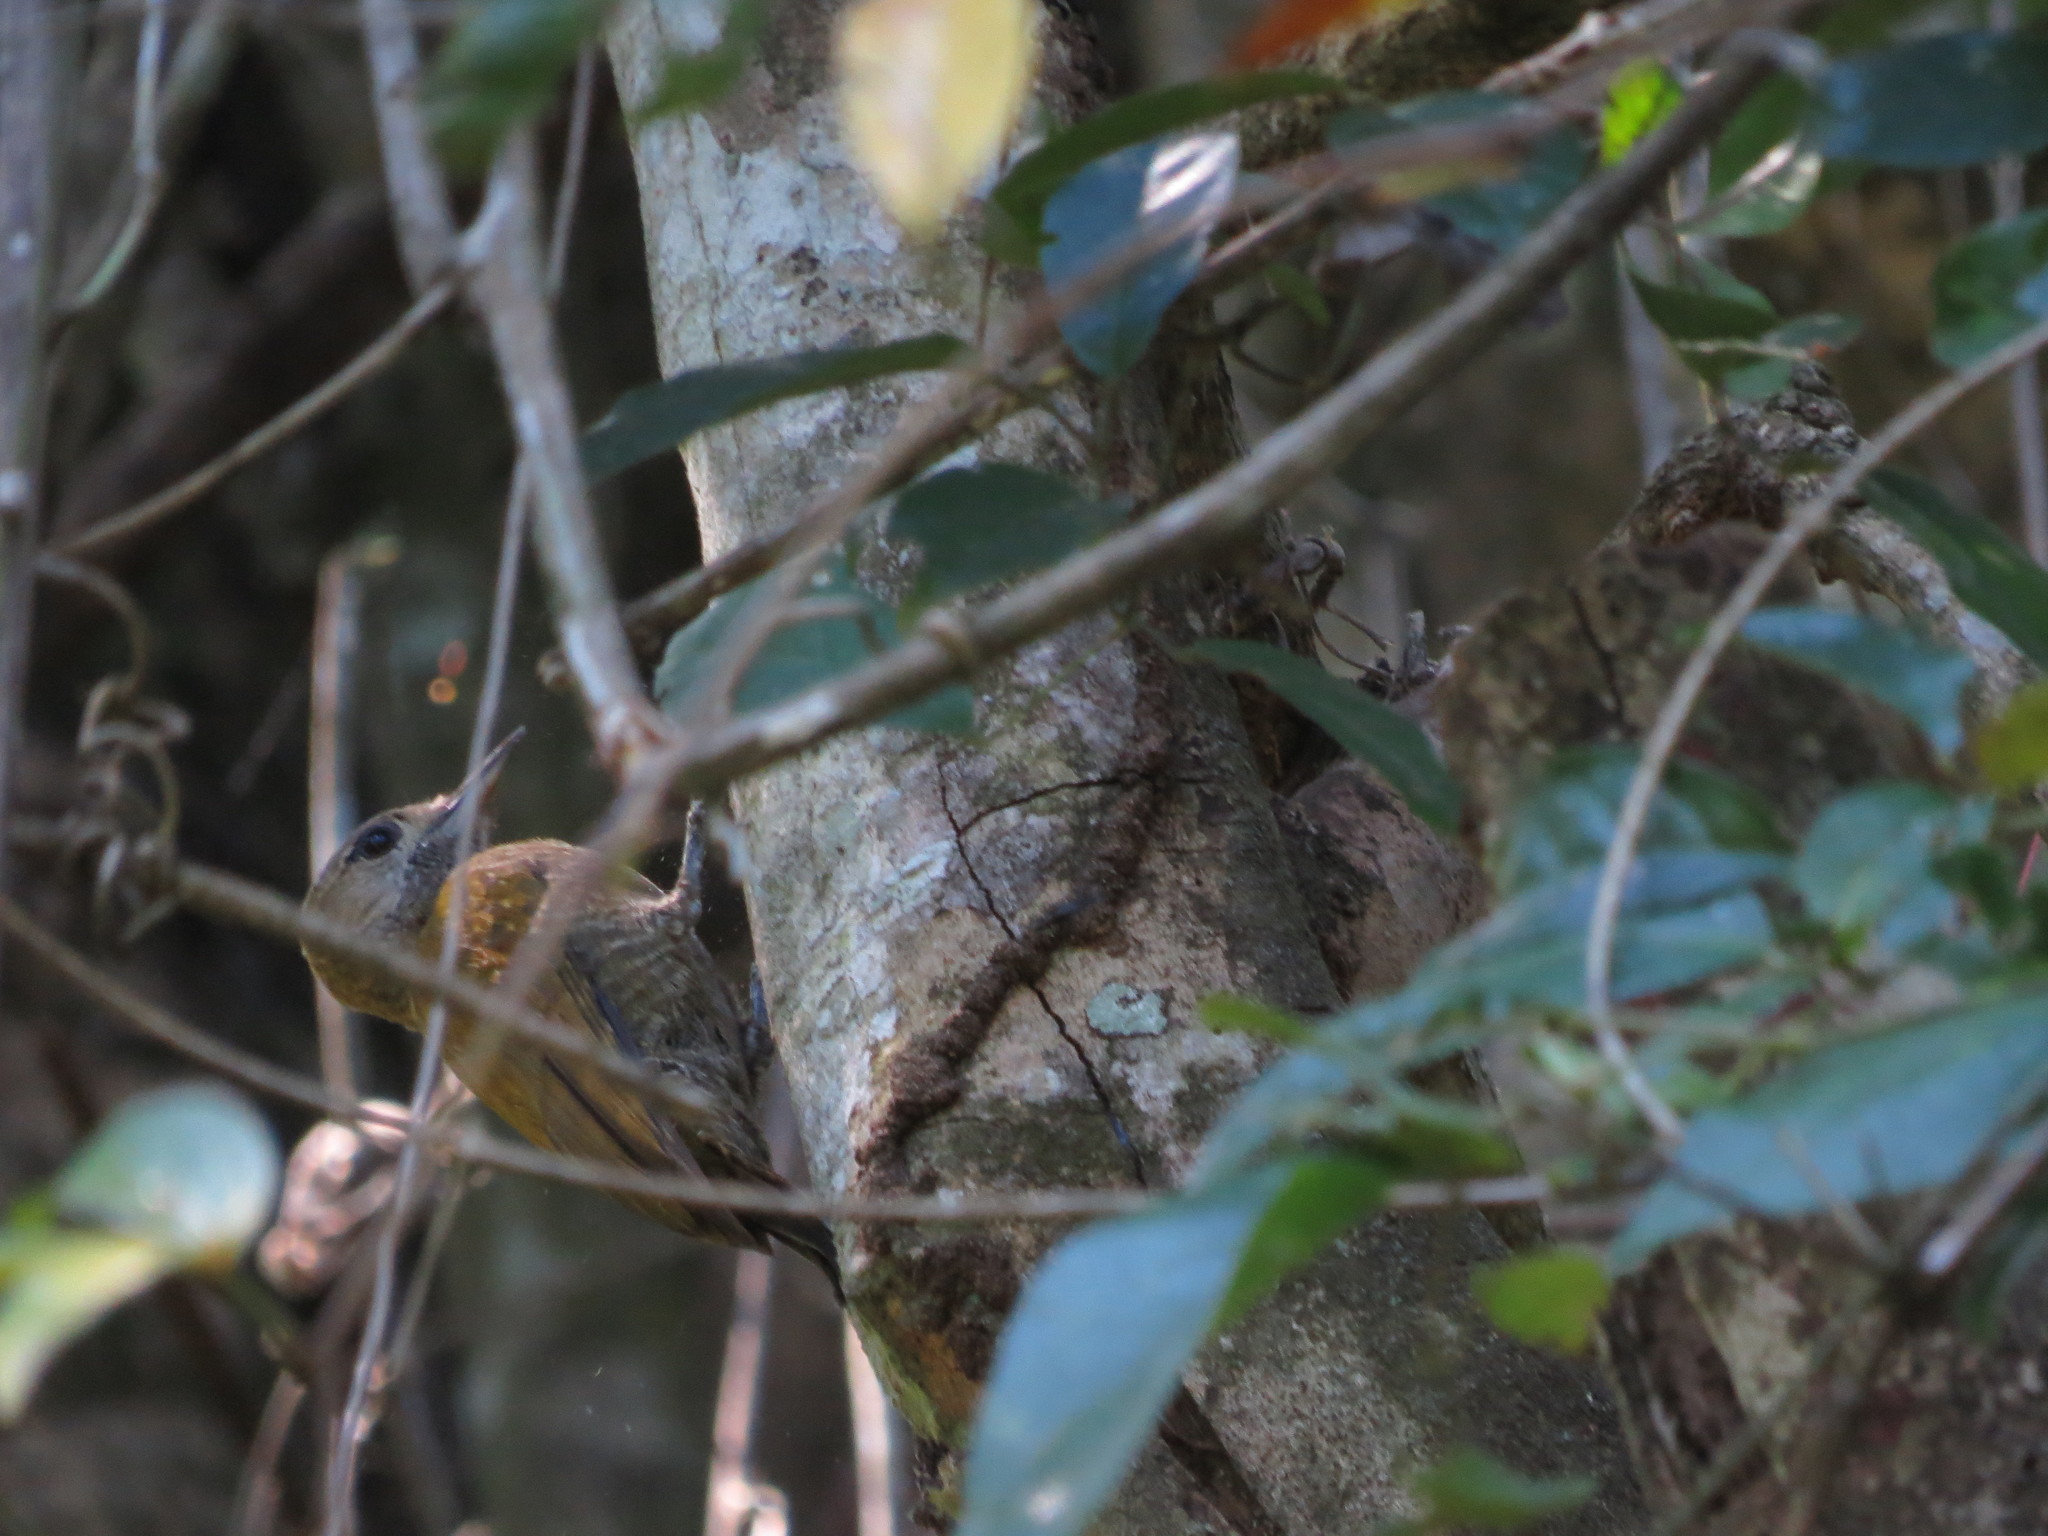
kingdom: Animalia
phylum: Chordata
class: Aves
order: Piciformes
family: Picidae
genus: Veniliornis
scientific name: Veniliornis passerinus
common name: Little woodpecker
